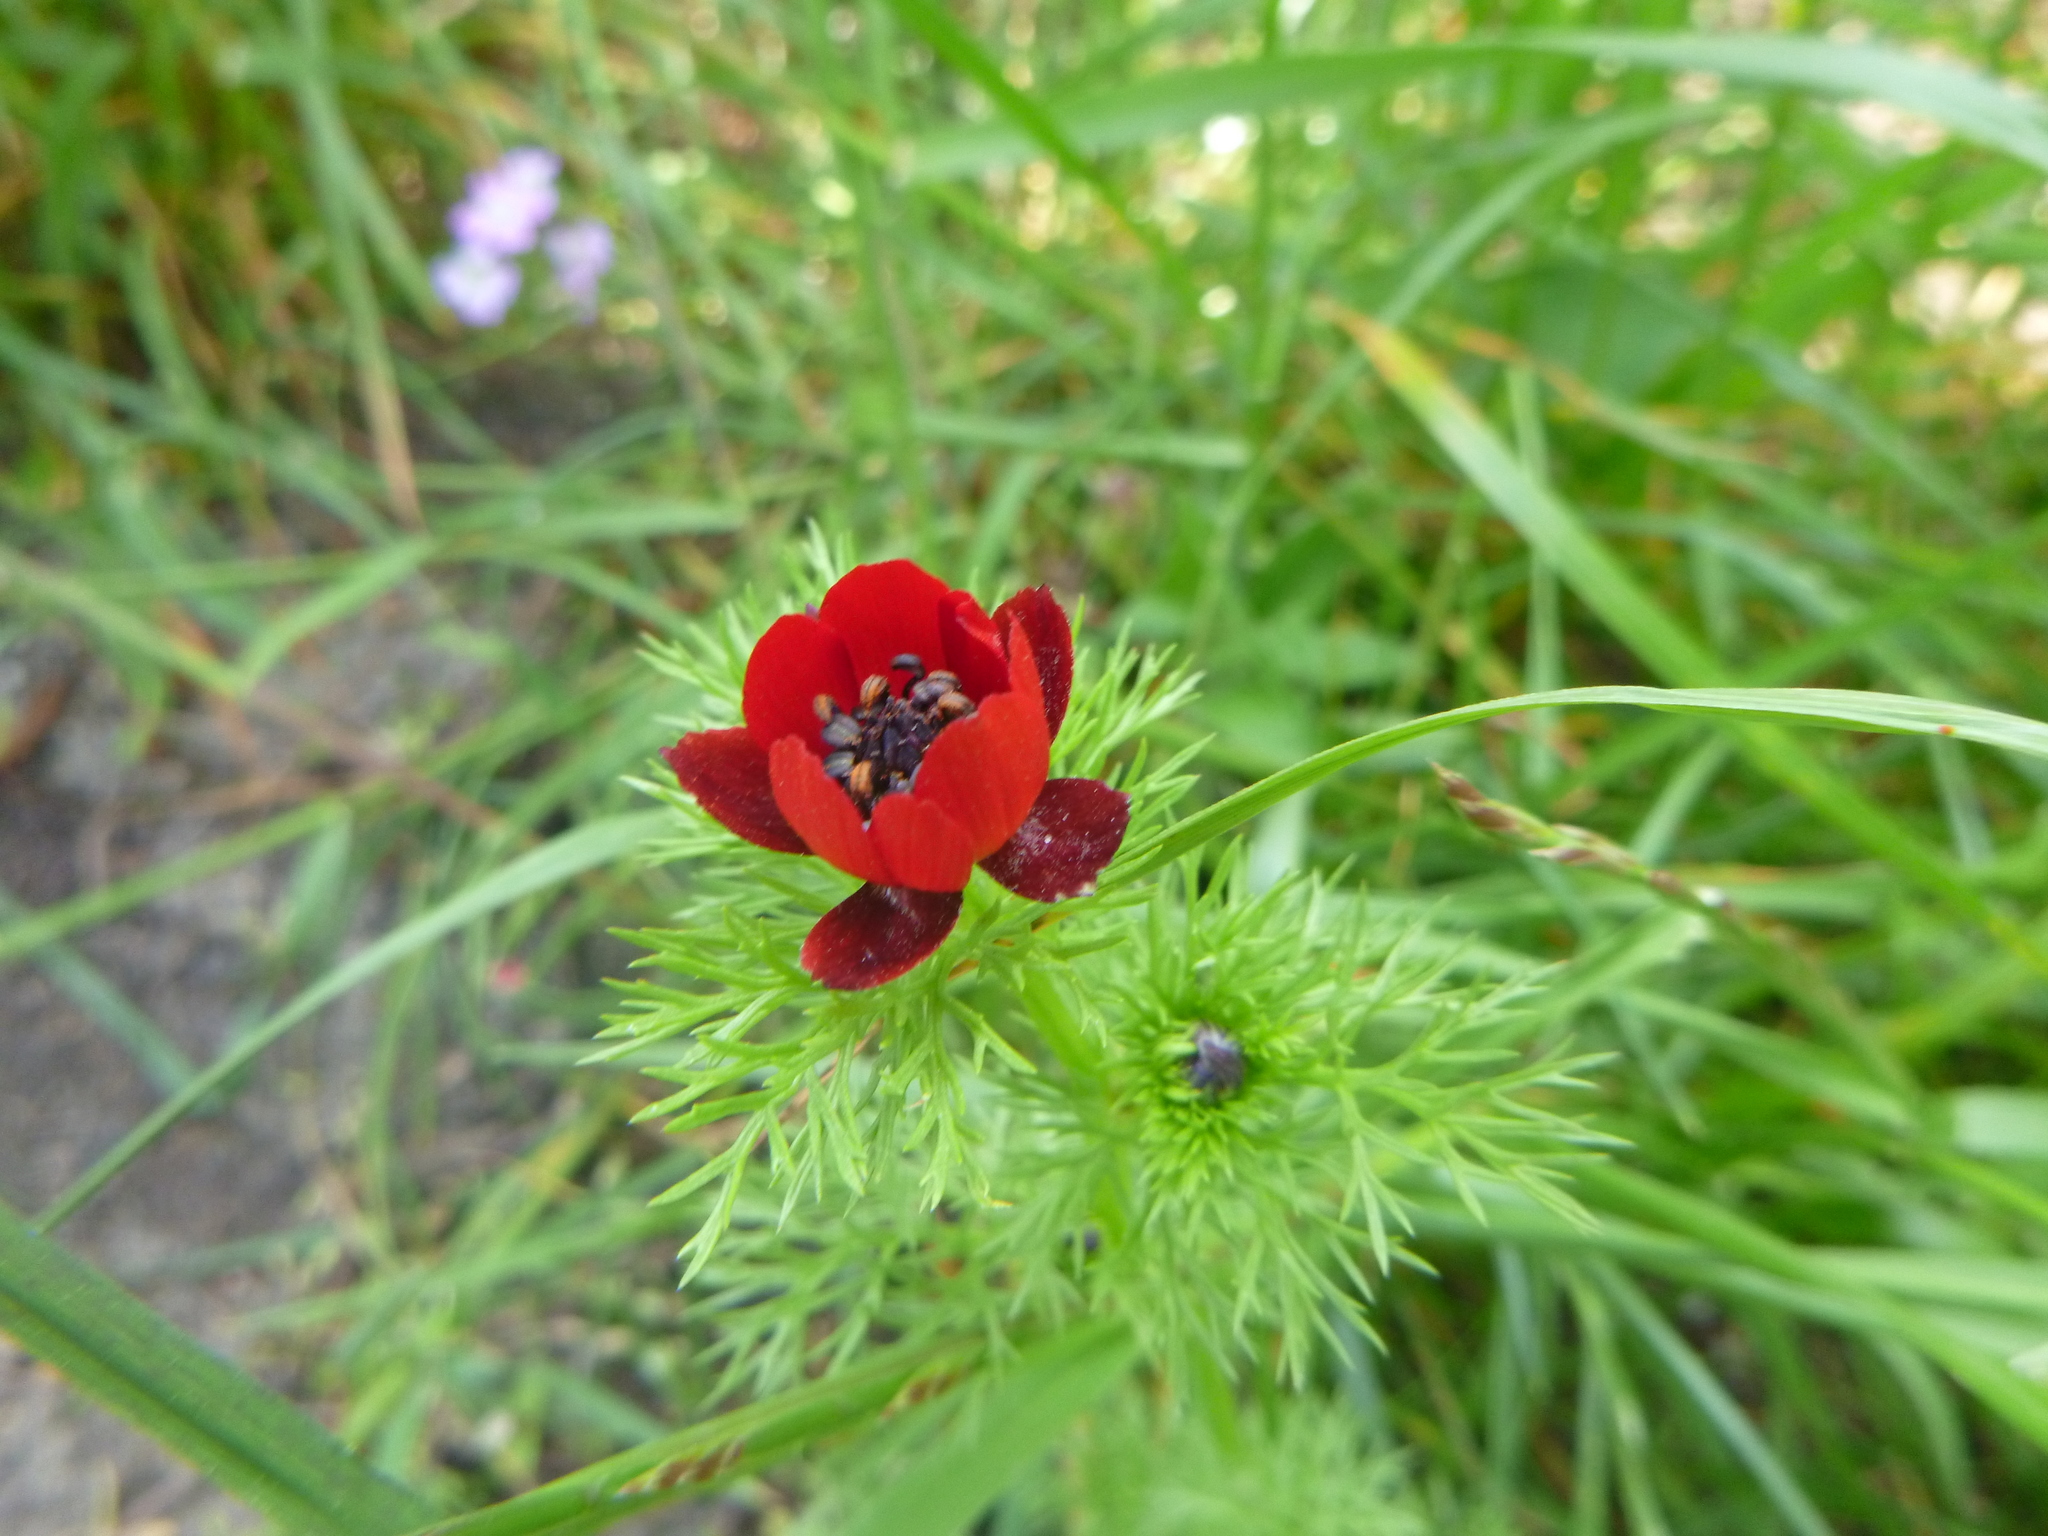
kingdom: Plantae
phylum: Tracheophyta
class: Magnoliopsida
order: Ranunculales
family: Ranunculaceae
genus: Adonis
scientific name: Adonis annua
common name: Pheasant's-eye
